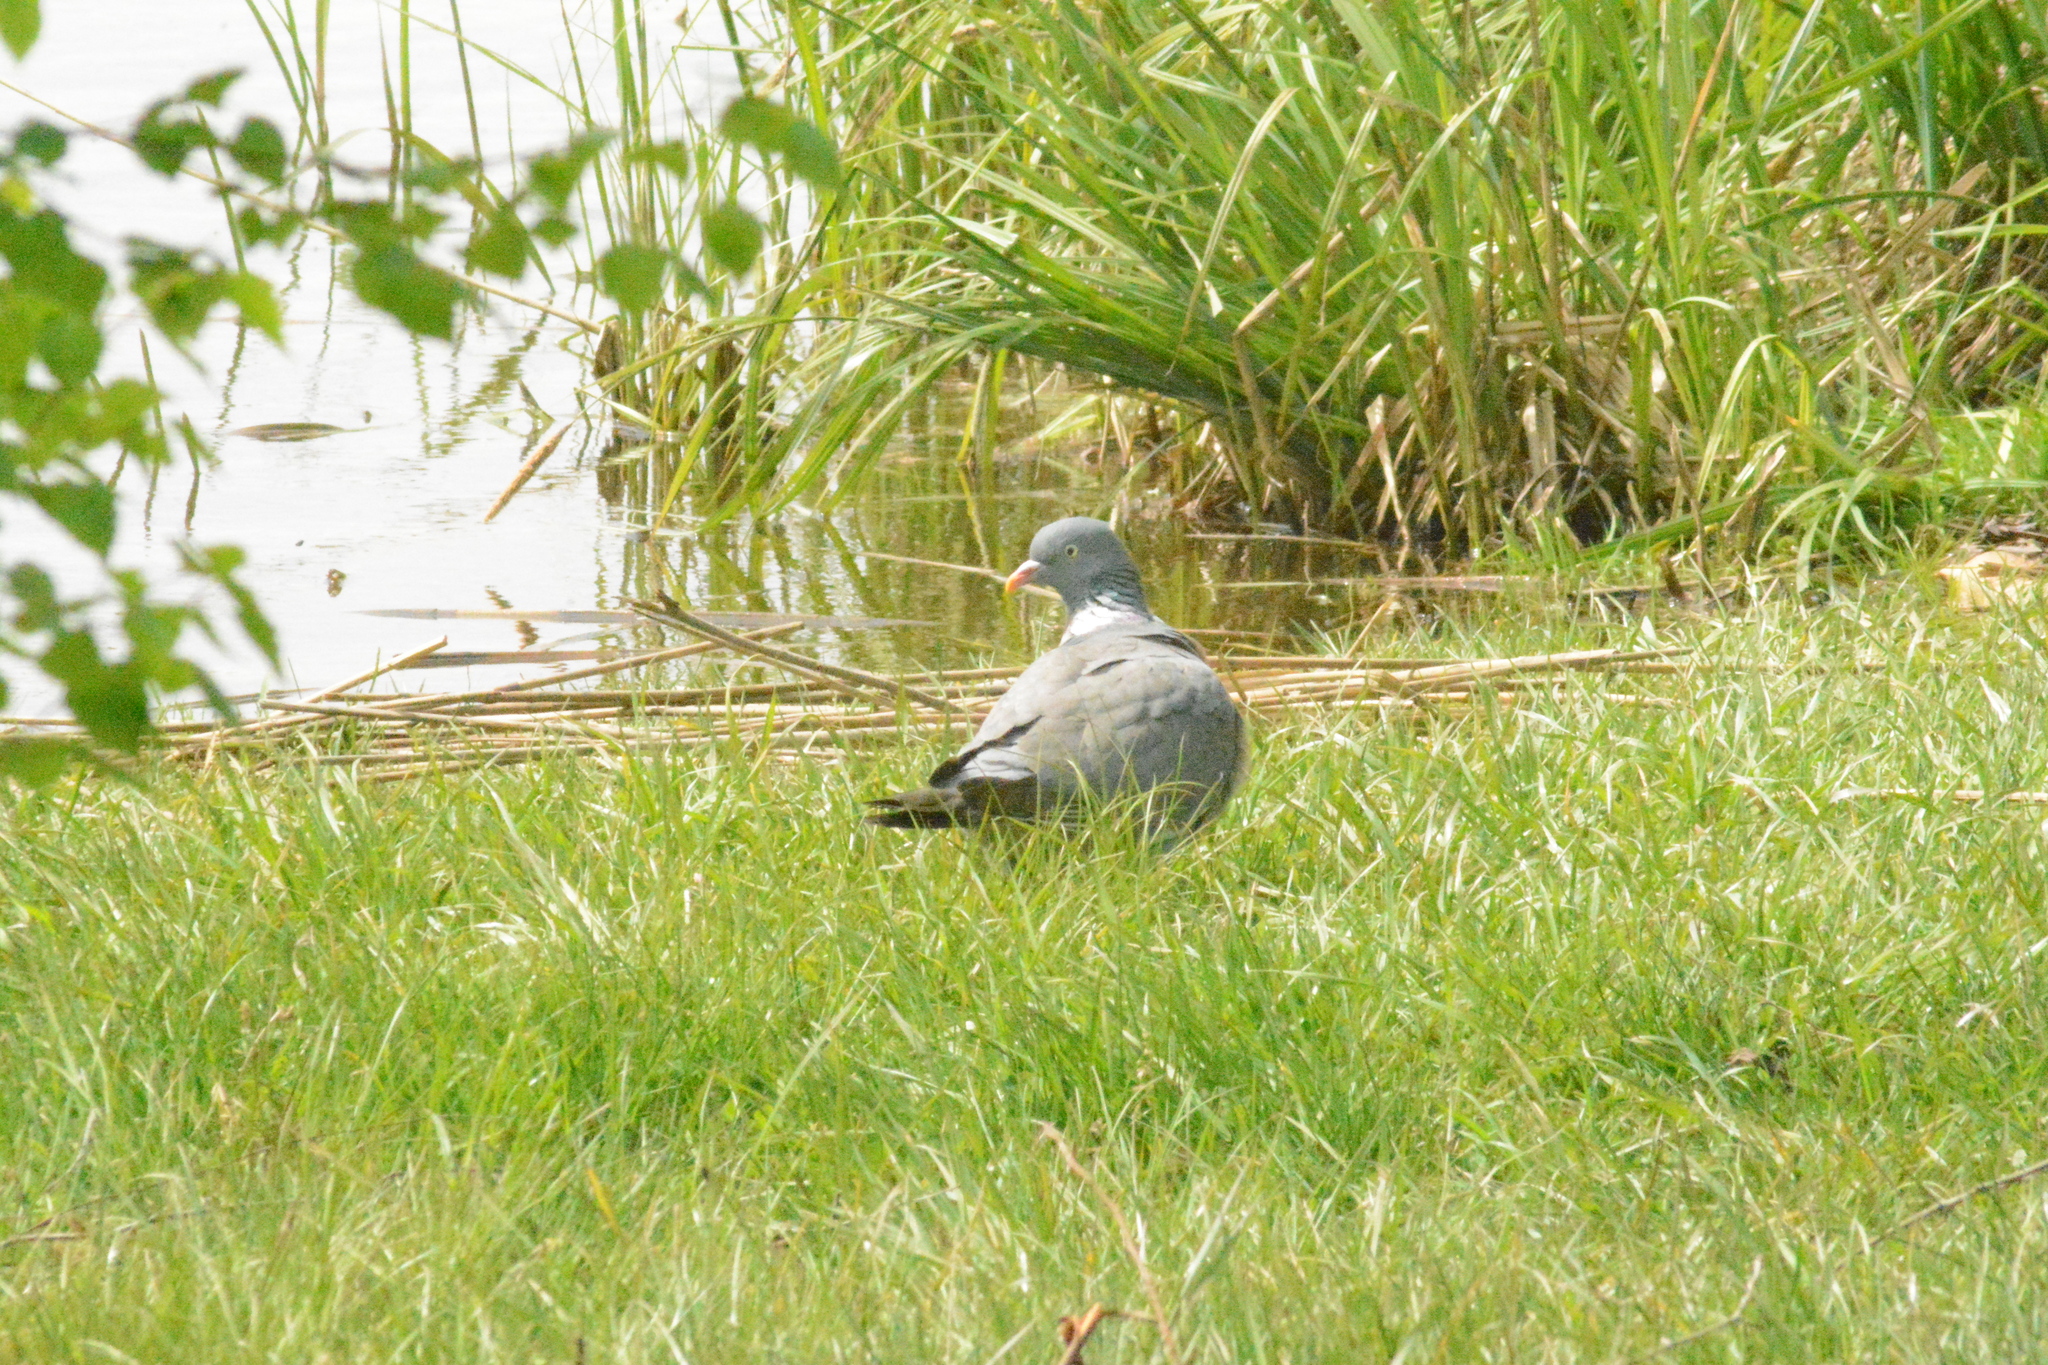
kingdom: Animalia
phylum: Chordata
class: Aves
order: Columbiformes
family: Columbidae
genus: Columba
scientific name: Columba palumbus
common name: Common wood pigeon
